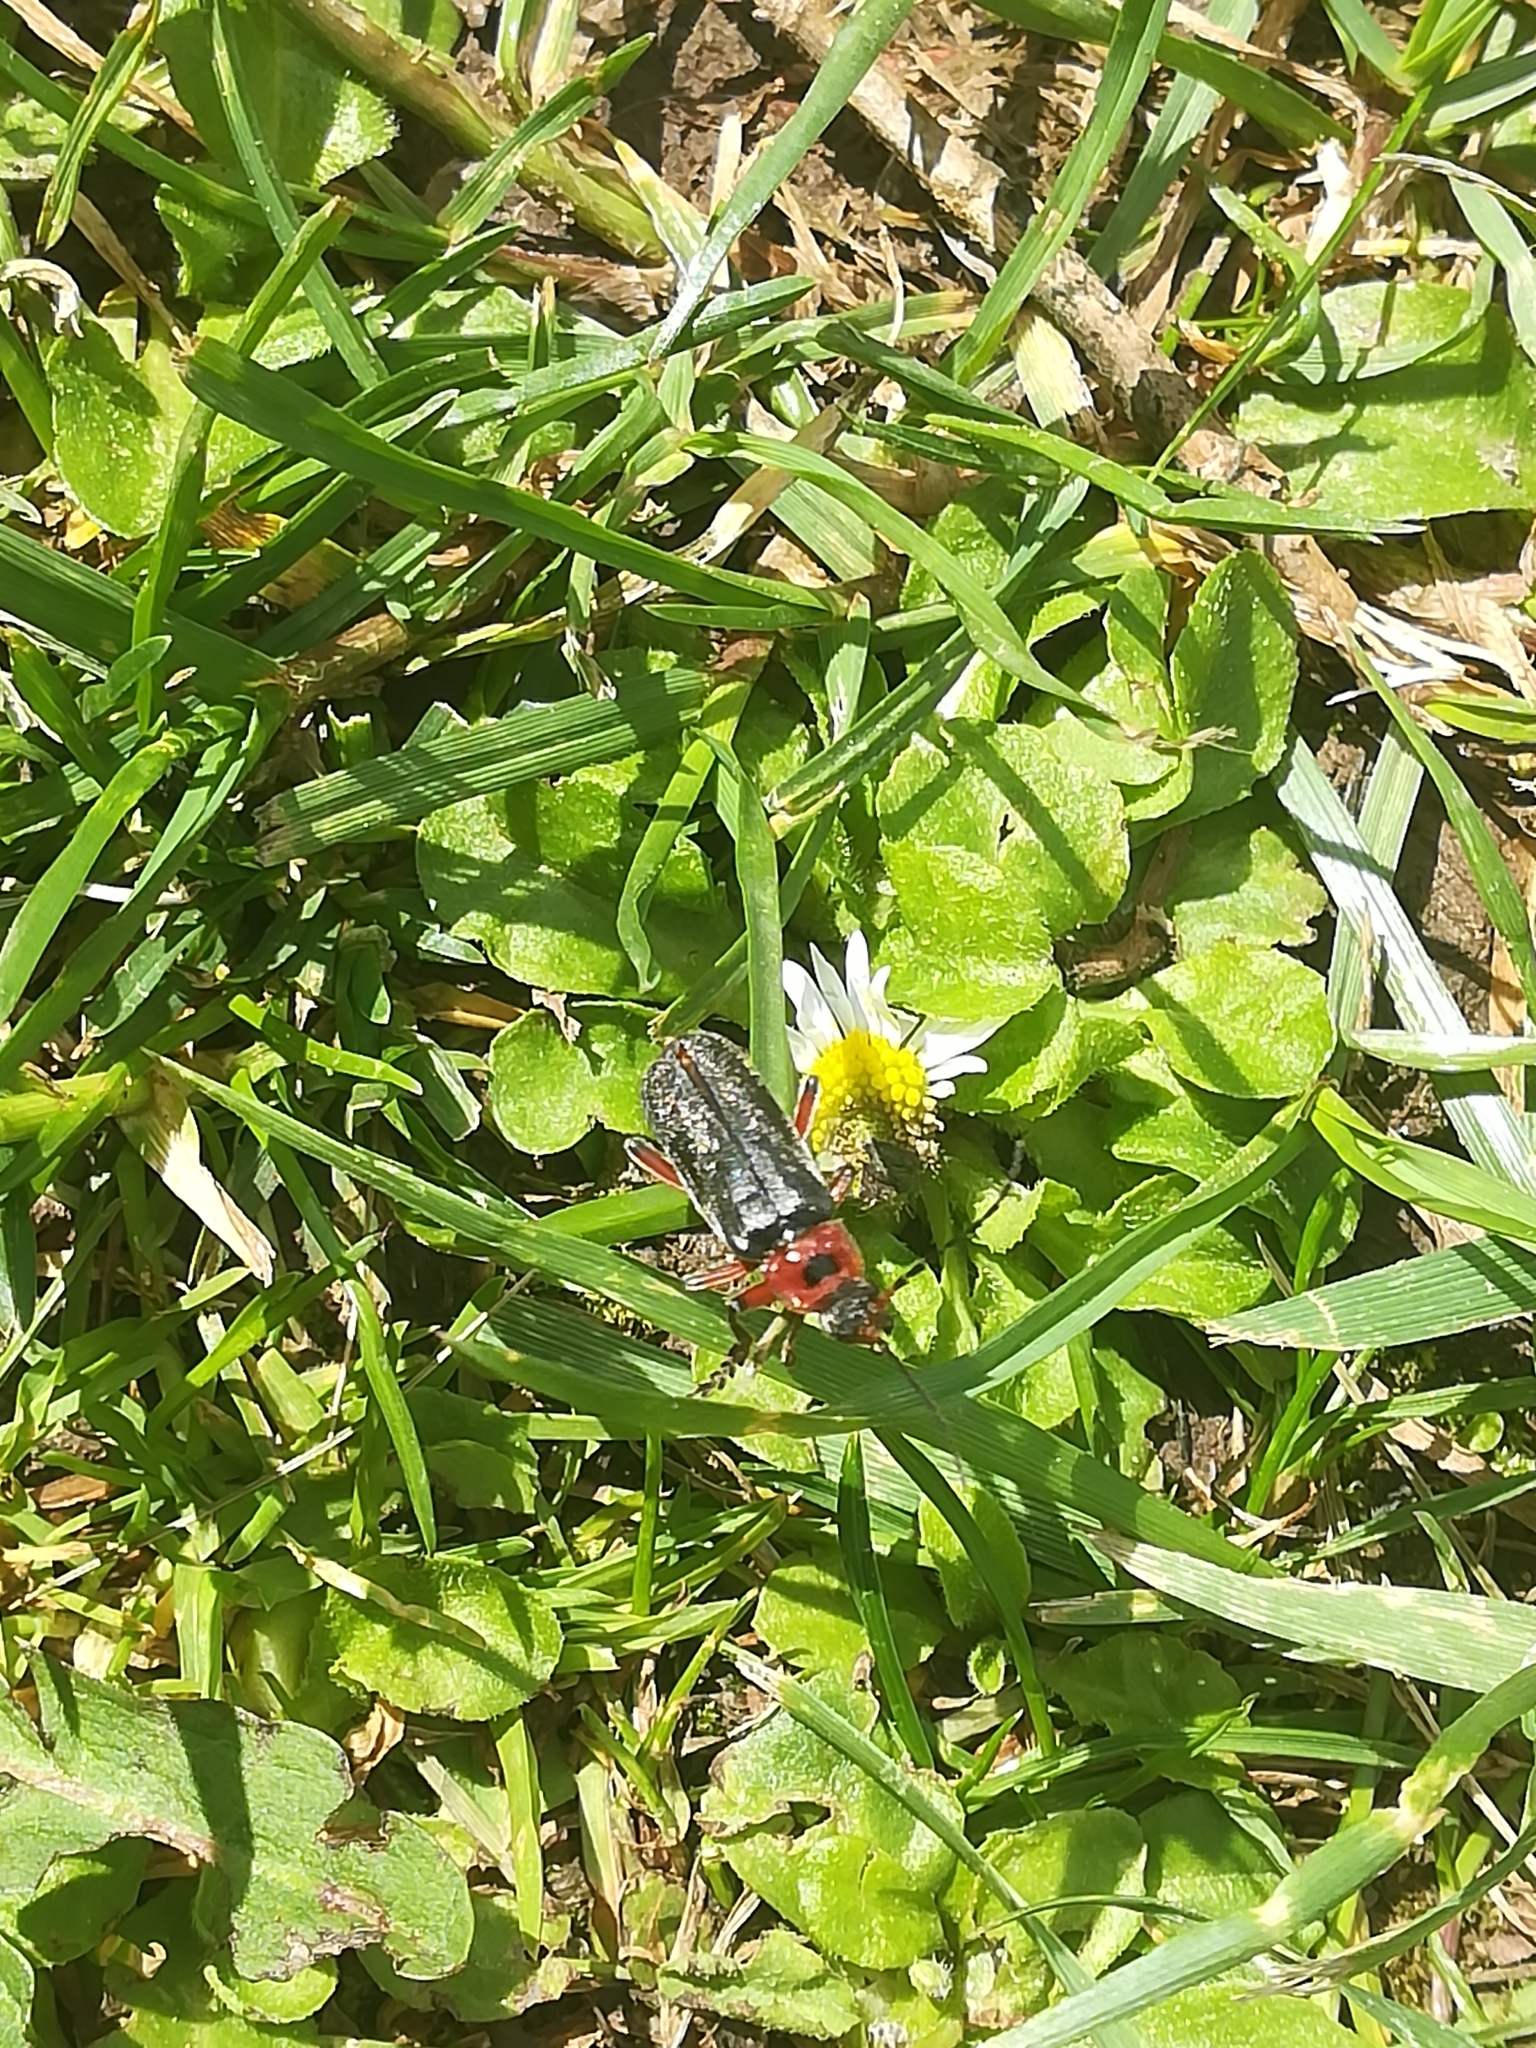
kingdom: Animalia
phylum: Arthropoda
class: Insecta
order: Coleoptera
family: Cantharidae
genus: Cantharis
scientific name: Cantharis rustica
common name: Soldier beetle
